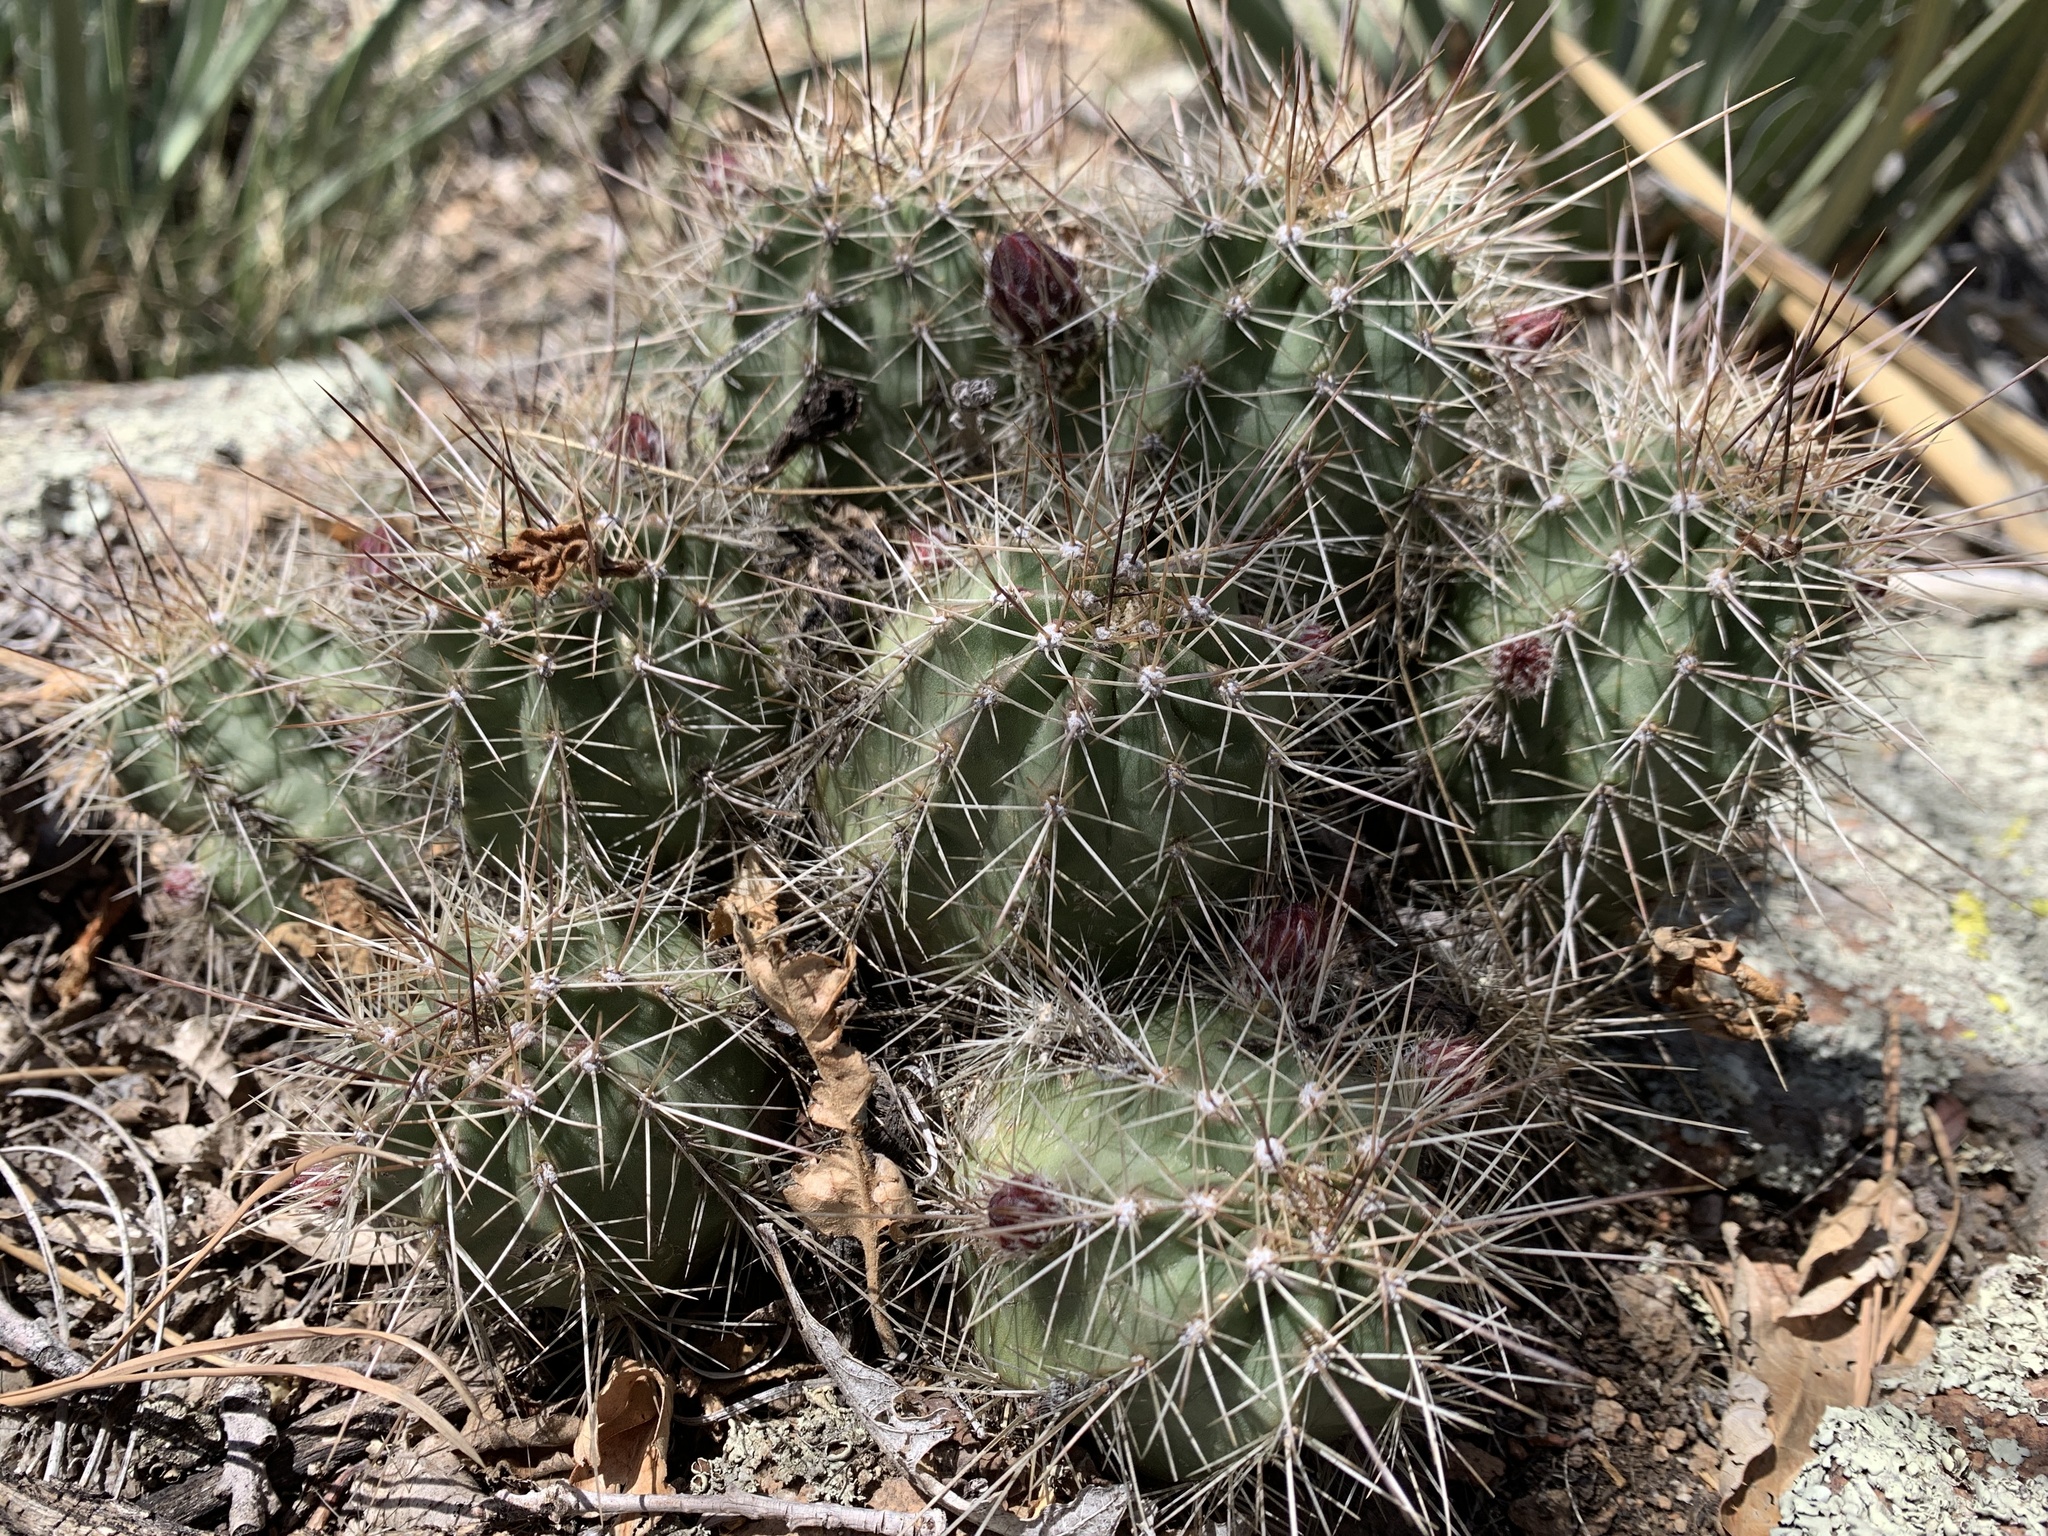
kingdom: Plantae
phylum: Tracheophyta
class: Magnoliopsida
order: Caryophyllales
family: Cactaceae
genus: Echinocereus
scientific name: Echinocereus bakeri
